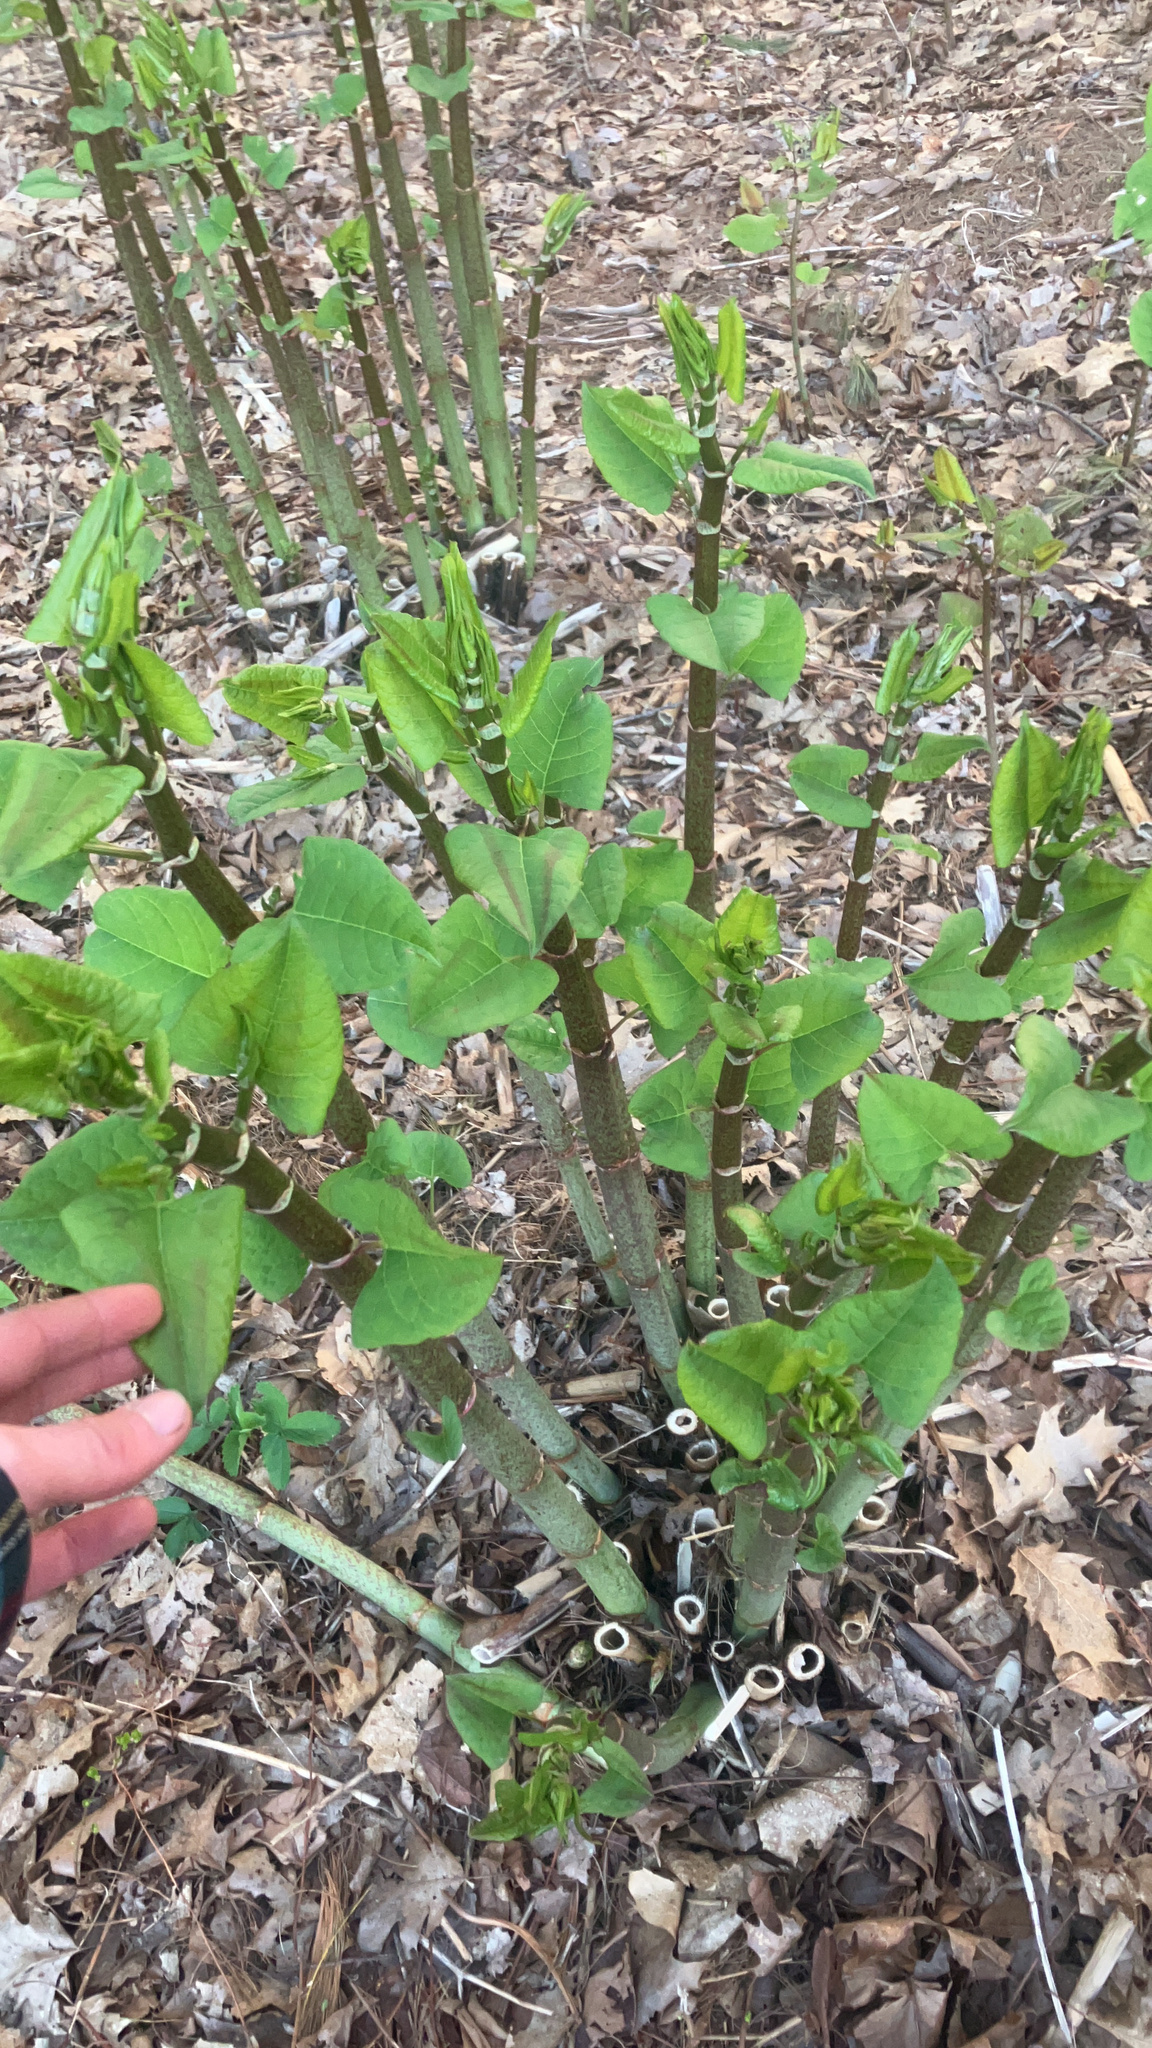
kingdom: Plantae
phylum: Tracheophyta
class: Magnoliopsida
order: Caryophyllales
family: Polygonaceae
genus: Reynoutria
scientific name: Reynoutria japonica
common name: Japanese knotweed
